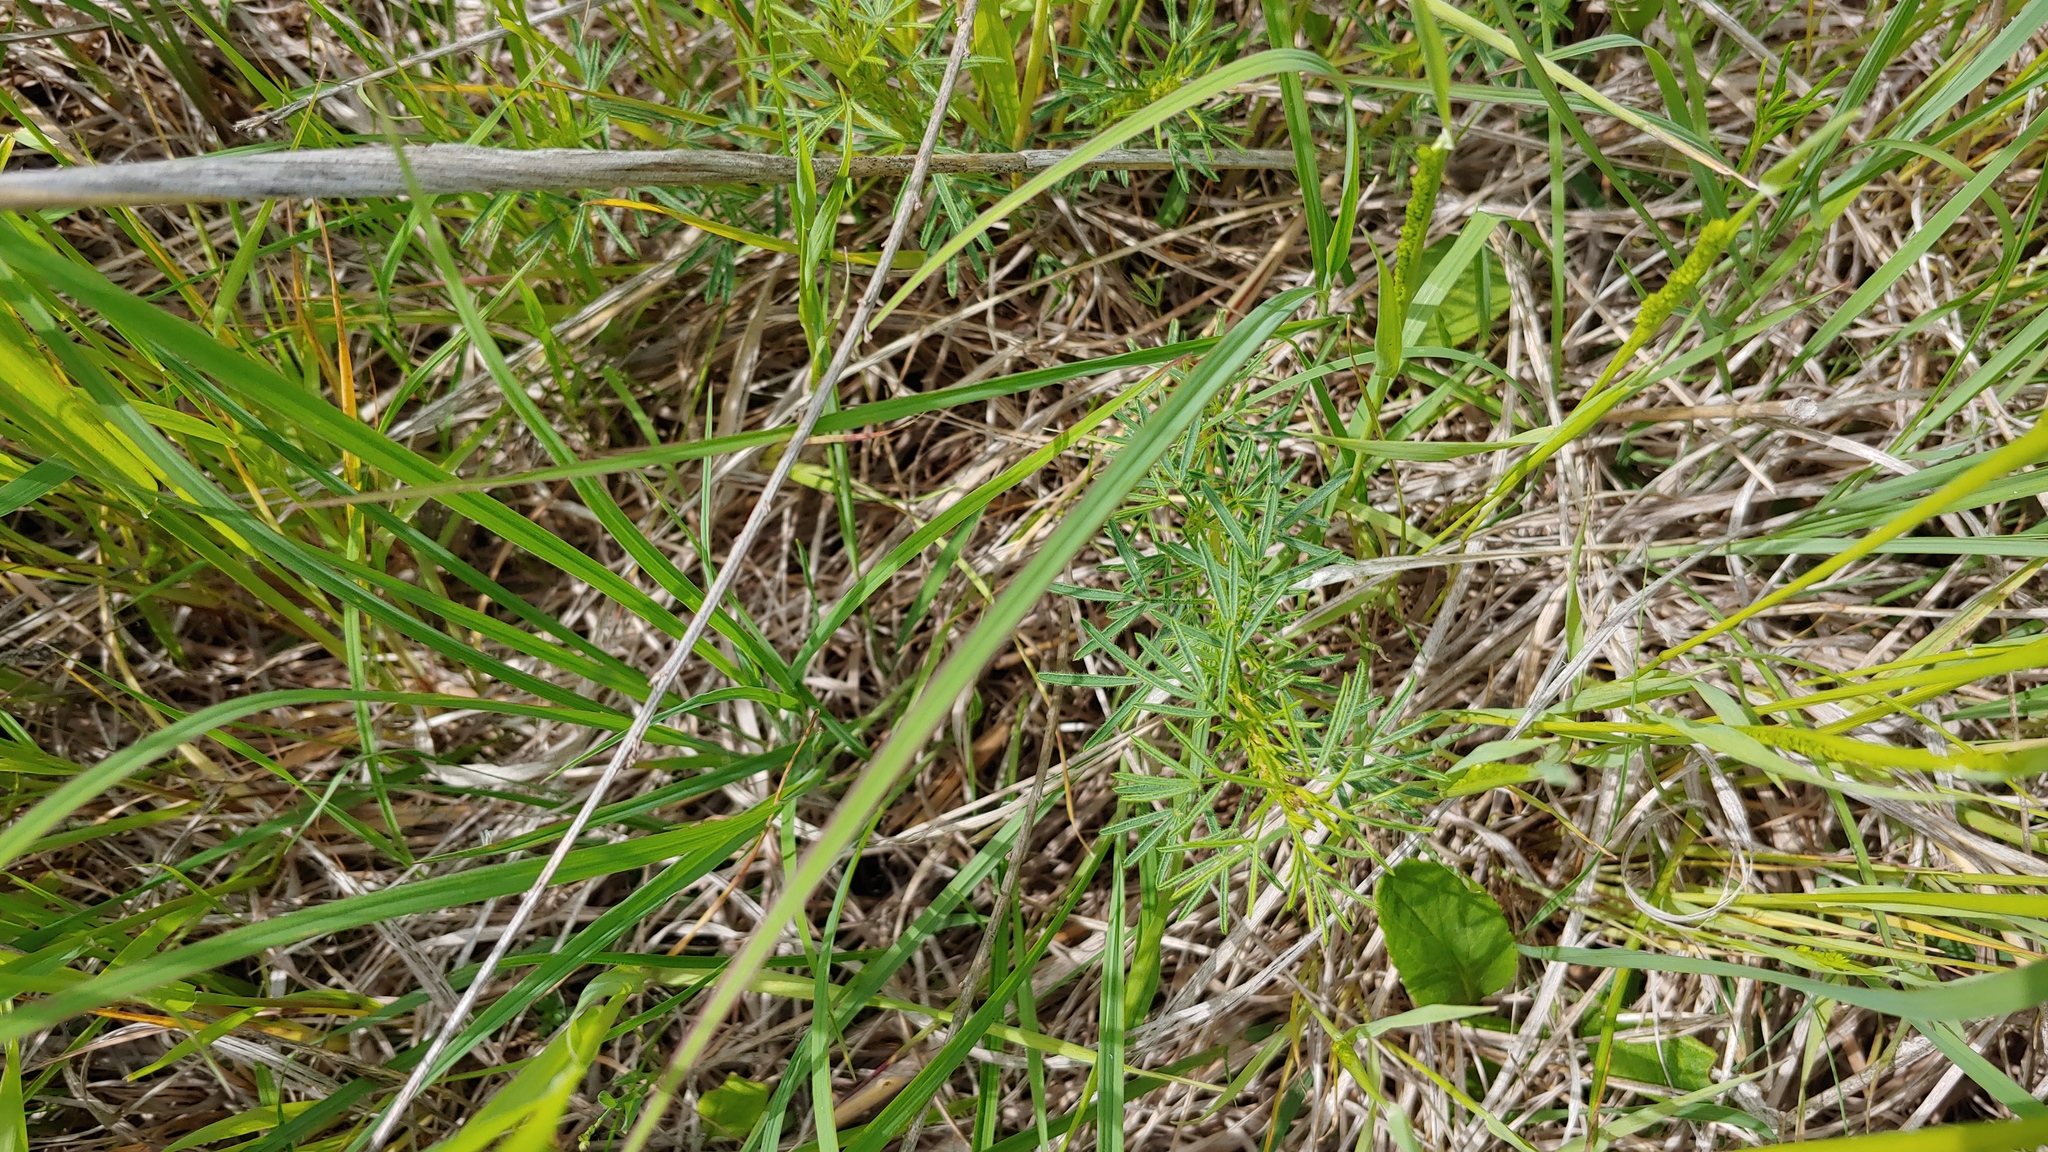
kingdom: Plantae
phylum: Tracheophyta
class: Magnoliopsida
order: Fabales
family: Fabaceae
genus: Dalea
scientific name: Dalea purpurea
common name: Purple prairie-clover
